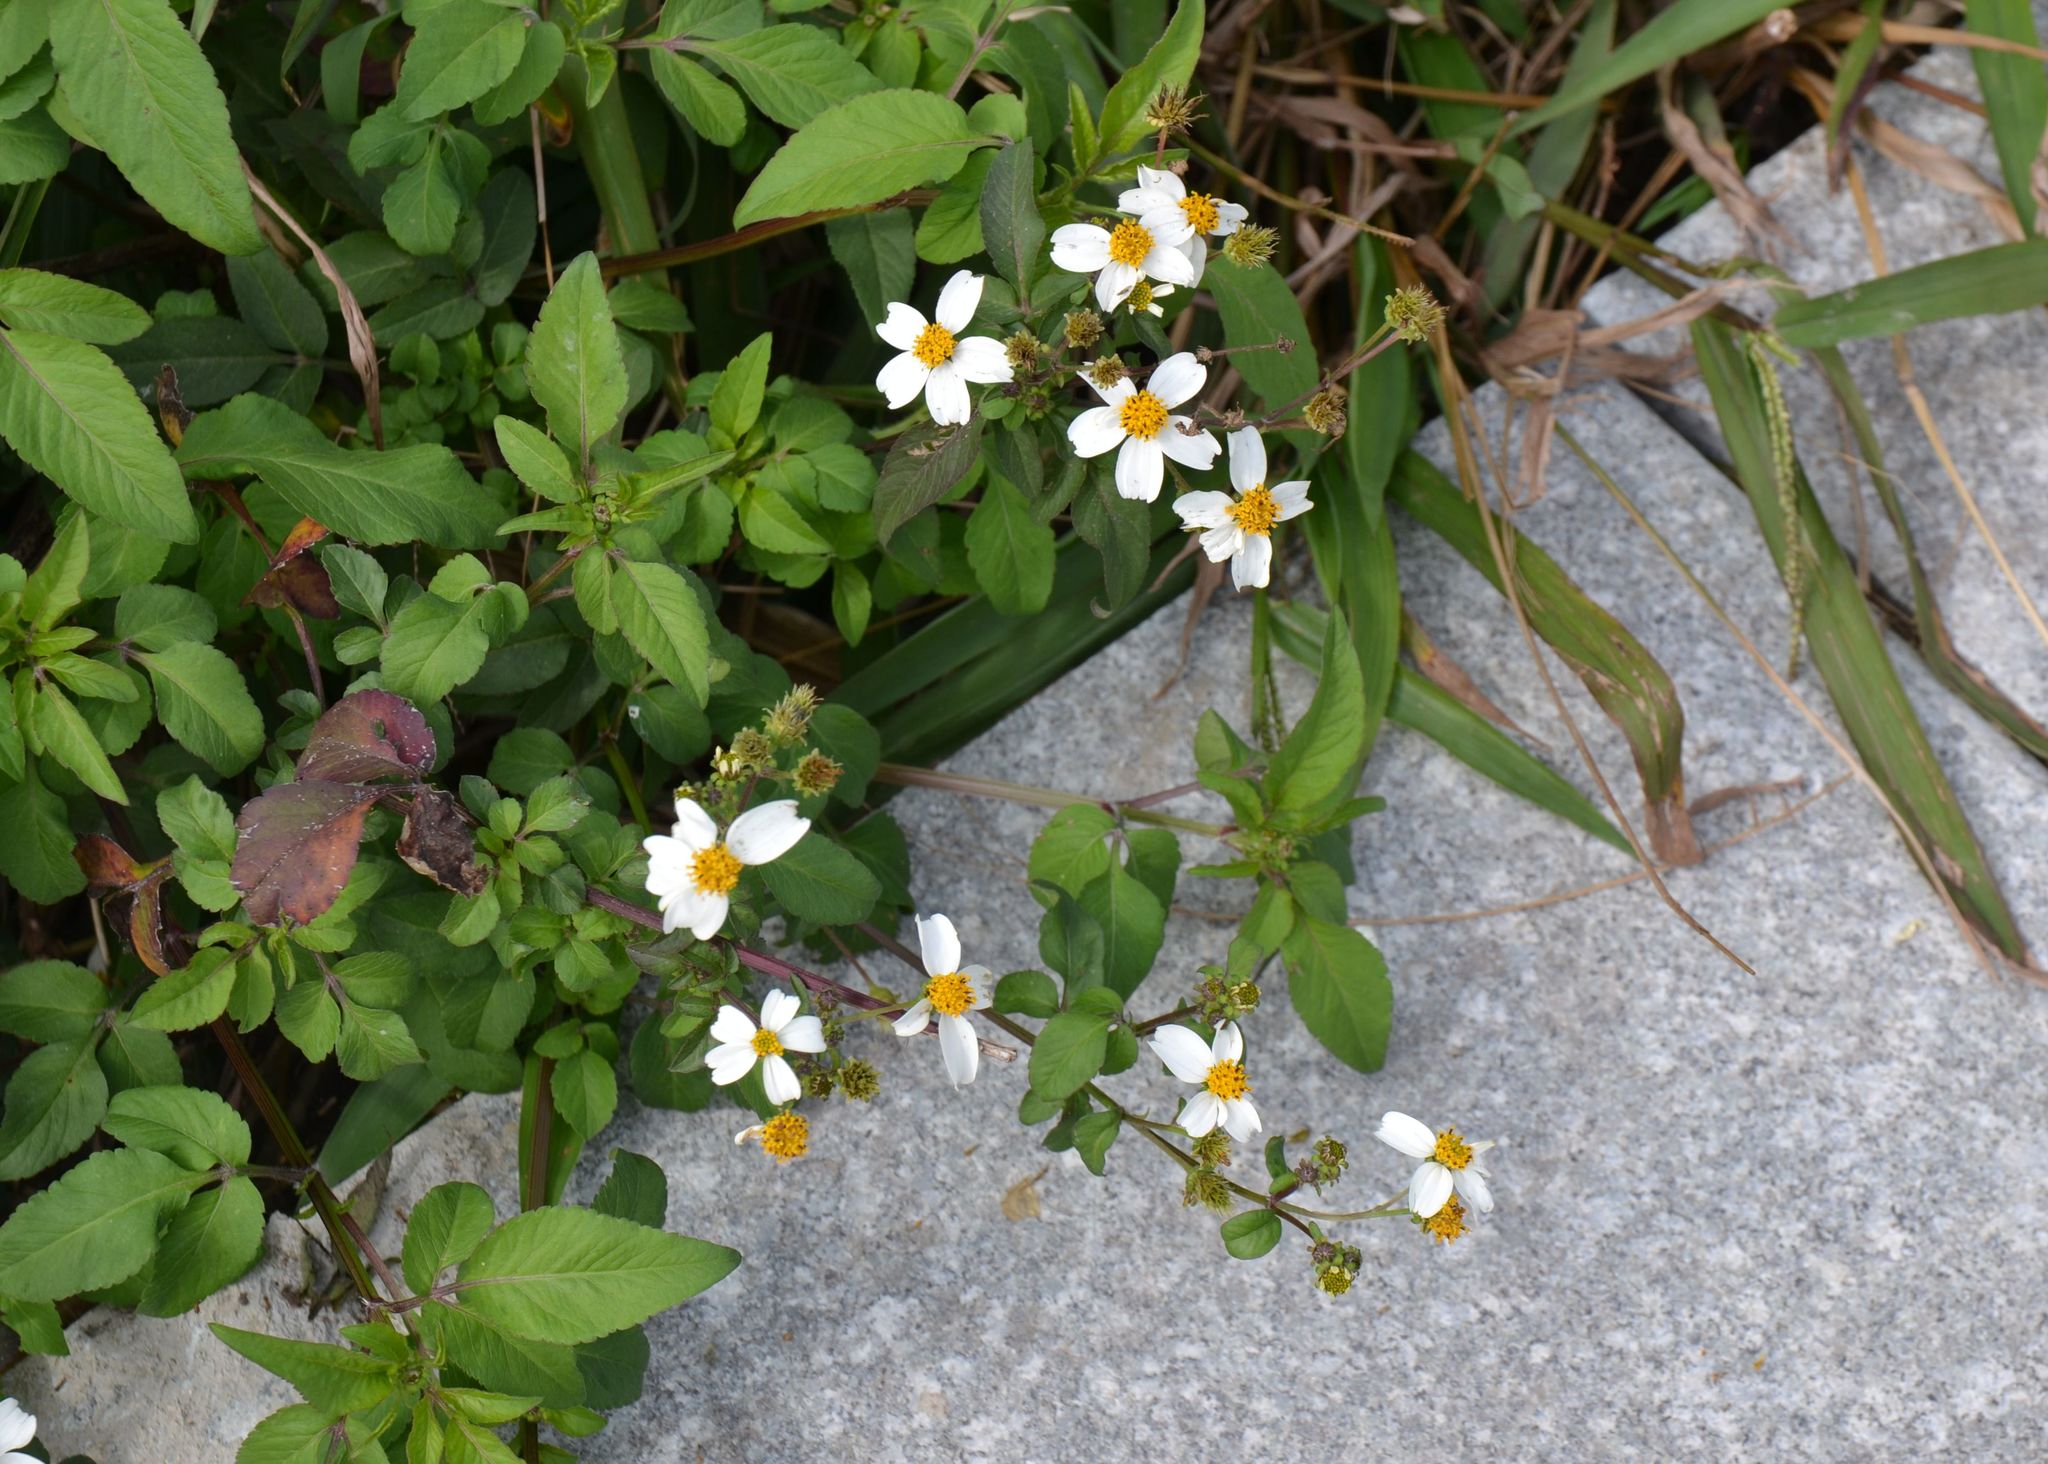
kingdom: Plantae
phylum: Tracheophyta
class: Magnoliopsida
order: Asterales
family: Asteraceae
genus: Bidens
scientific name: Bidens alba
